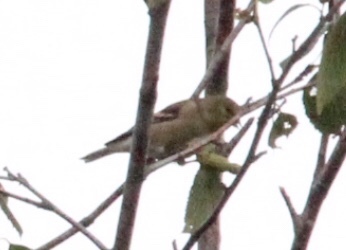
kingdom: Animalia
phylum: Chordata
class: Aves
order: Passeriformes
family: Fringillidae
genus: Spinus
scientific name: Spinus tristis
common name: American goldfinch
